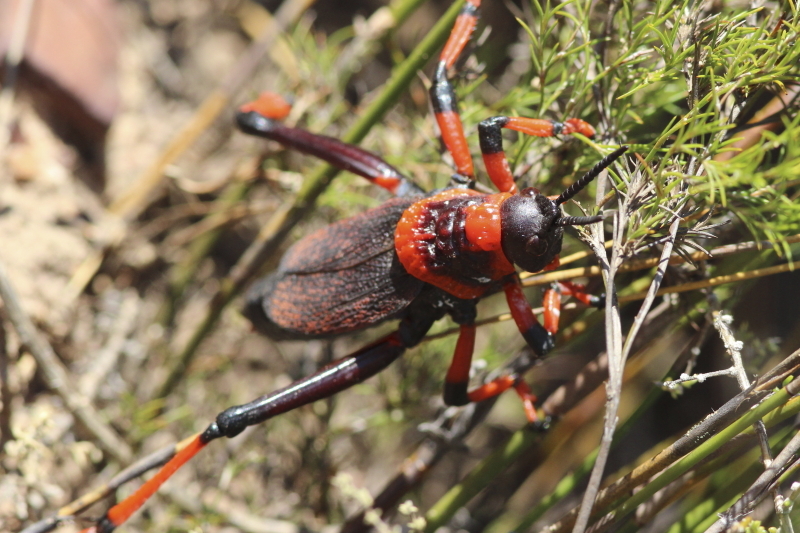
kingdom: Animalia
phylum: Arthropoda
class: Insecta
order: Orthoptera
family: Pyrgomorphidae
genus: Dictyophorus
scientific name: Dictyophorus spumans
